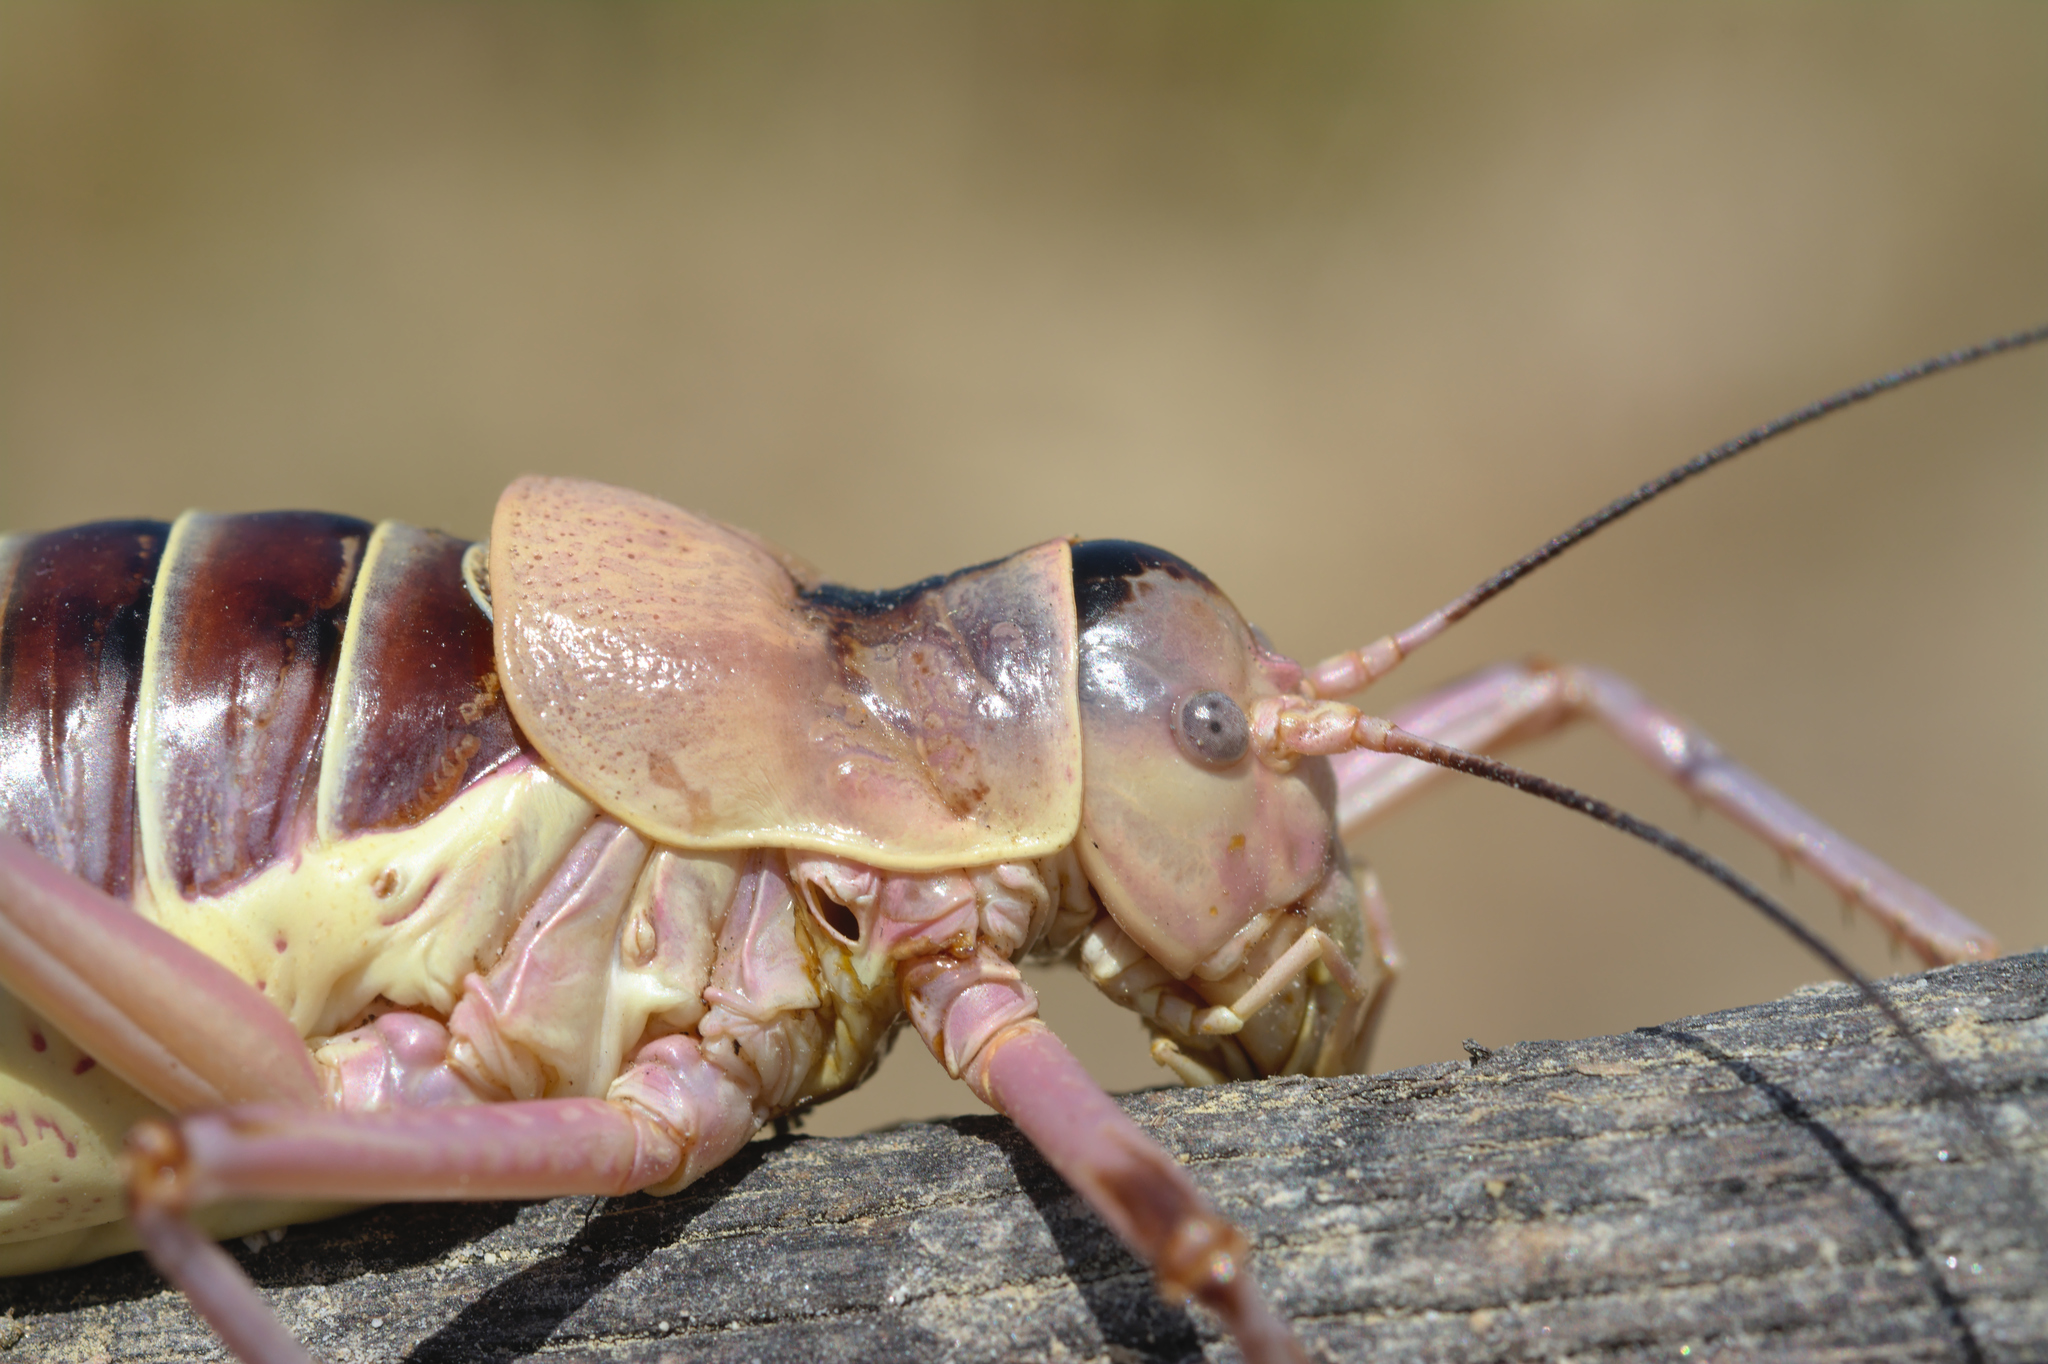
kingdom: Animalia
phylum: Arthropoda
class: Insecta
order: Orthoptera
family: Tettigoniidae
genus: Ephippiger
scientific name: Ephippiger diurnus
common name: Western saddle bush-cricket
